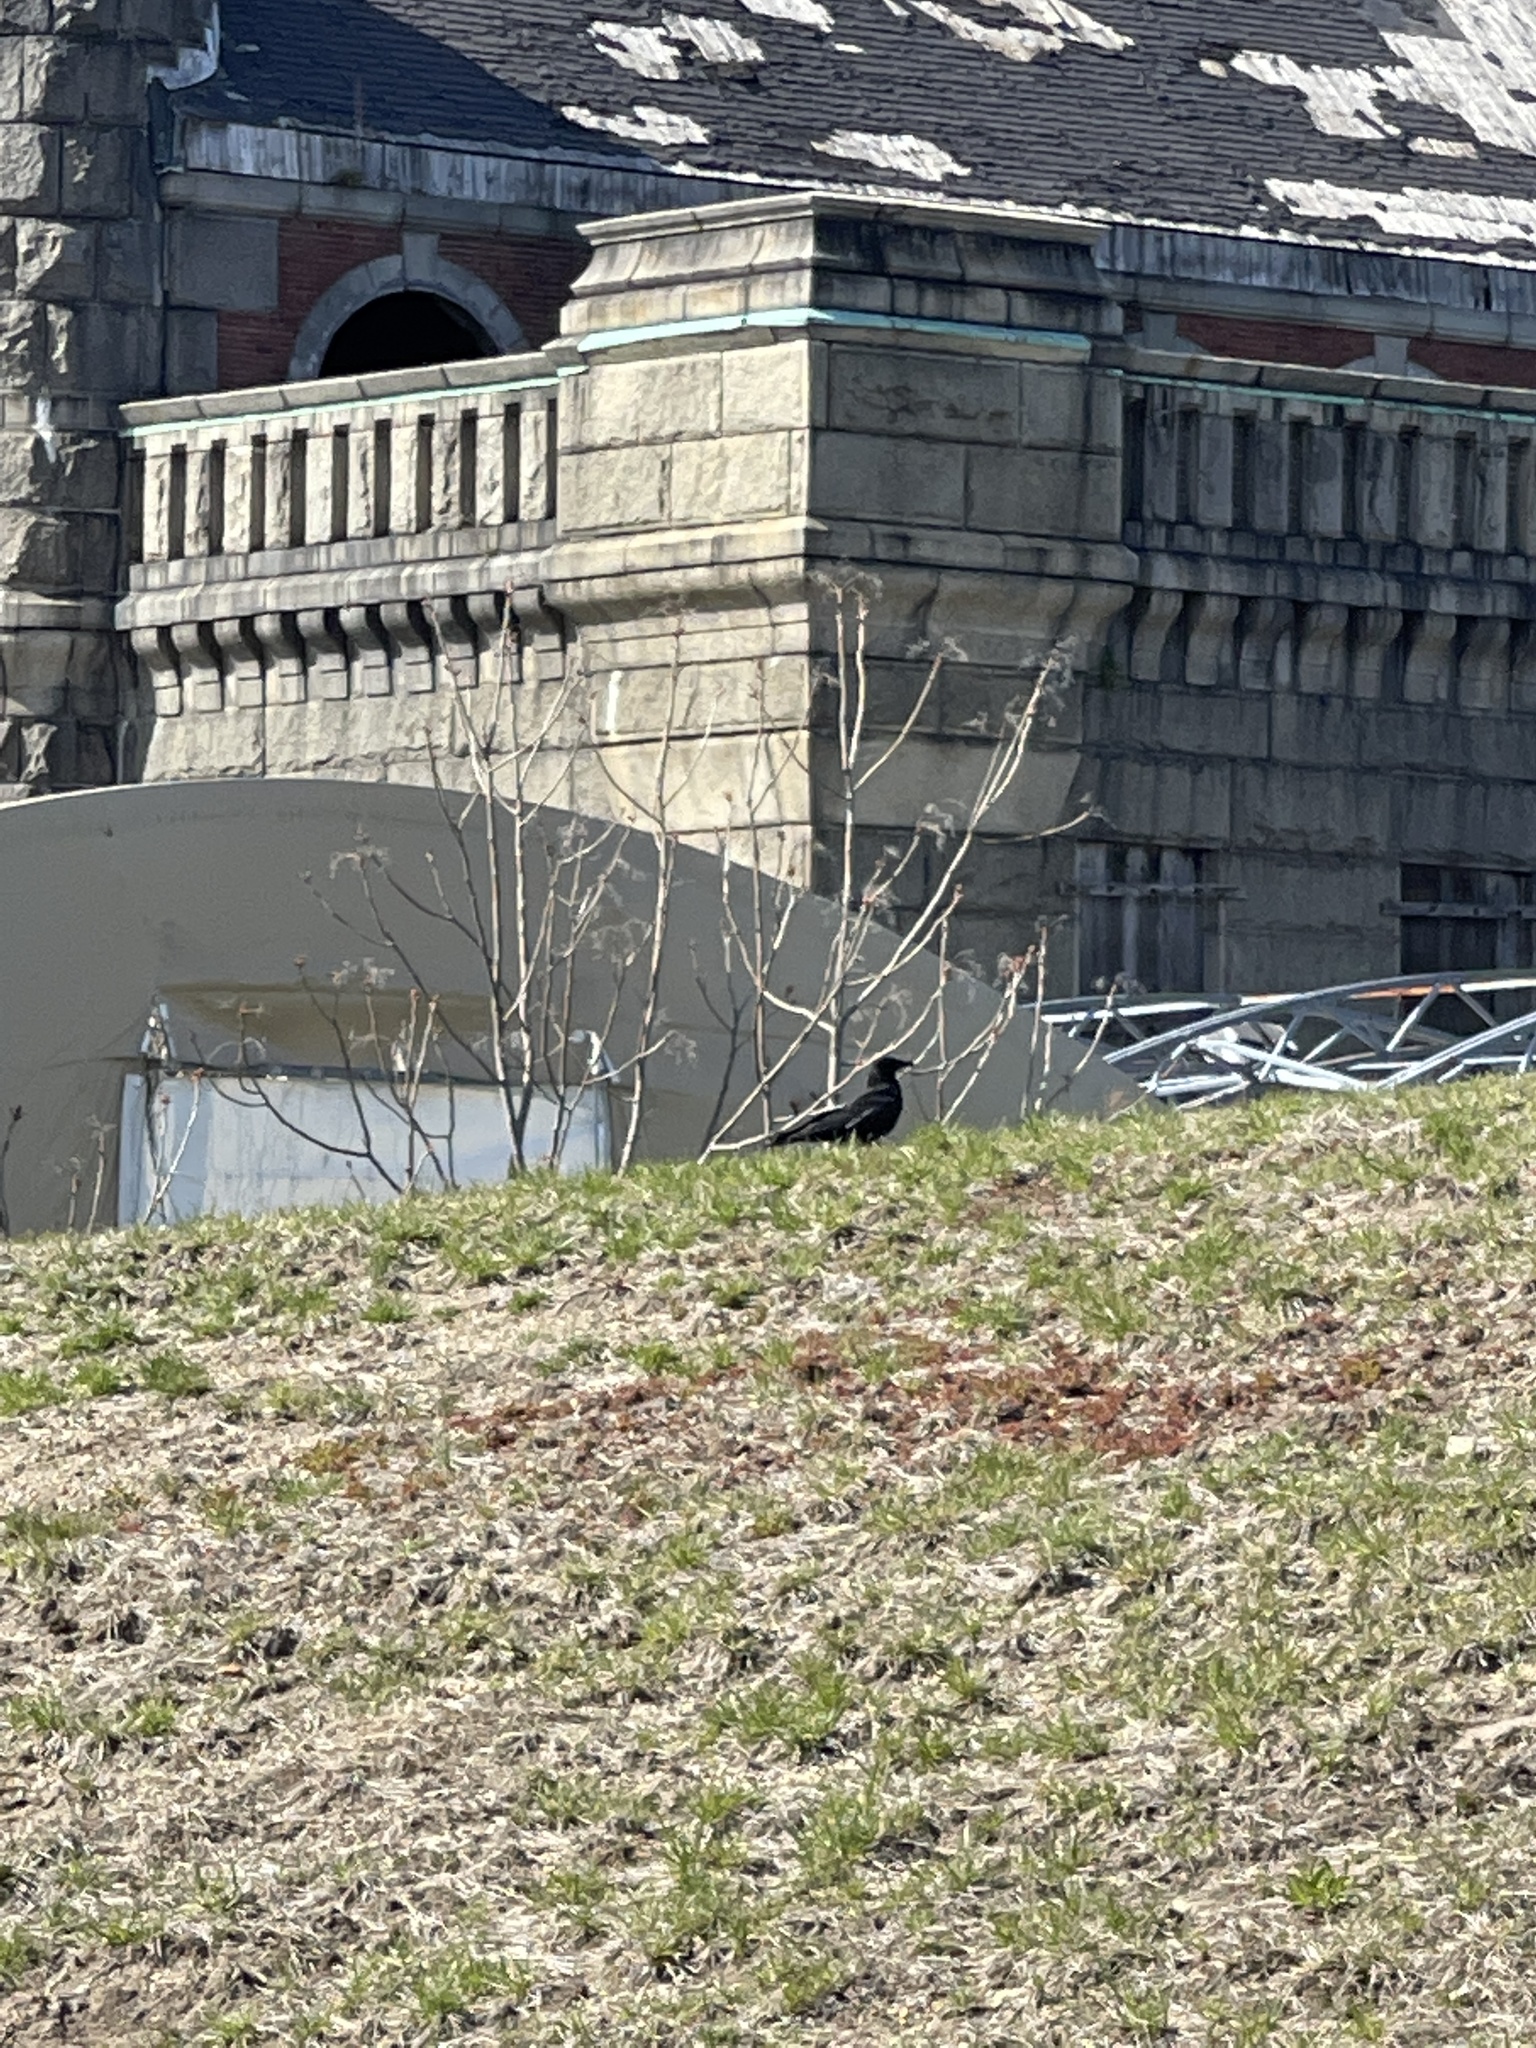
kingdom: Animalia
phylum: Chordata
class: Aves
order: Passeriformes
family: Corvidae
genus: Corvus
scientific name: Corvus
